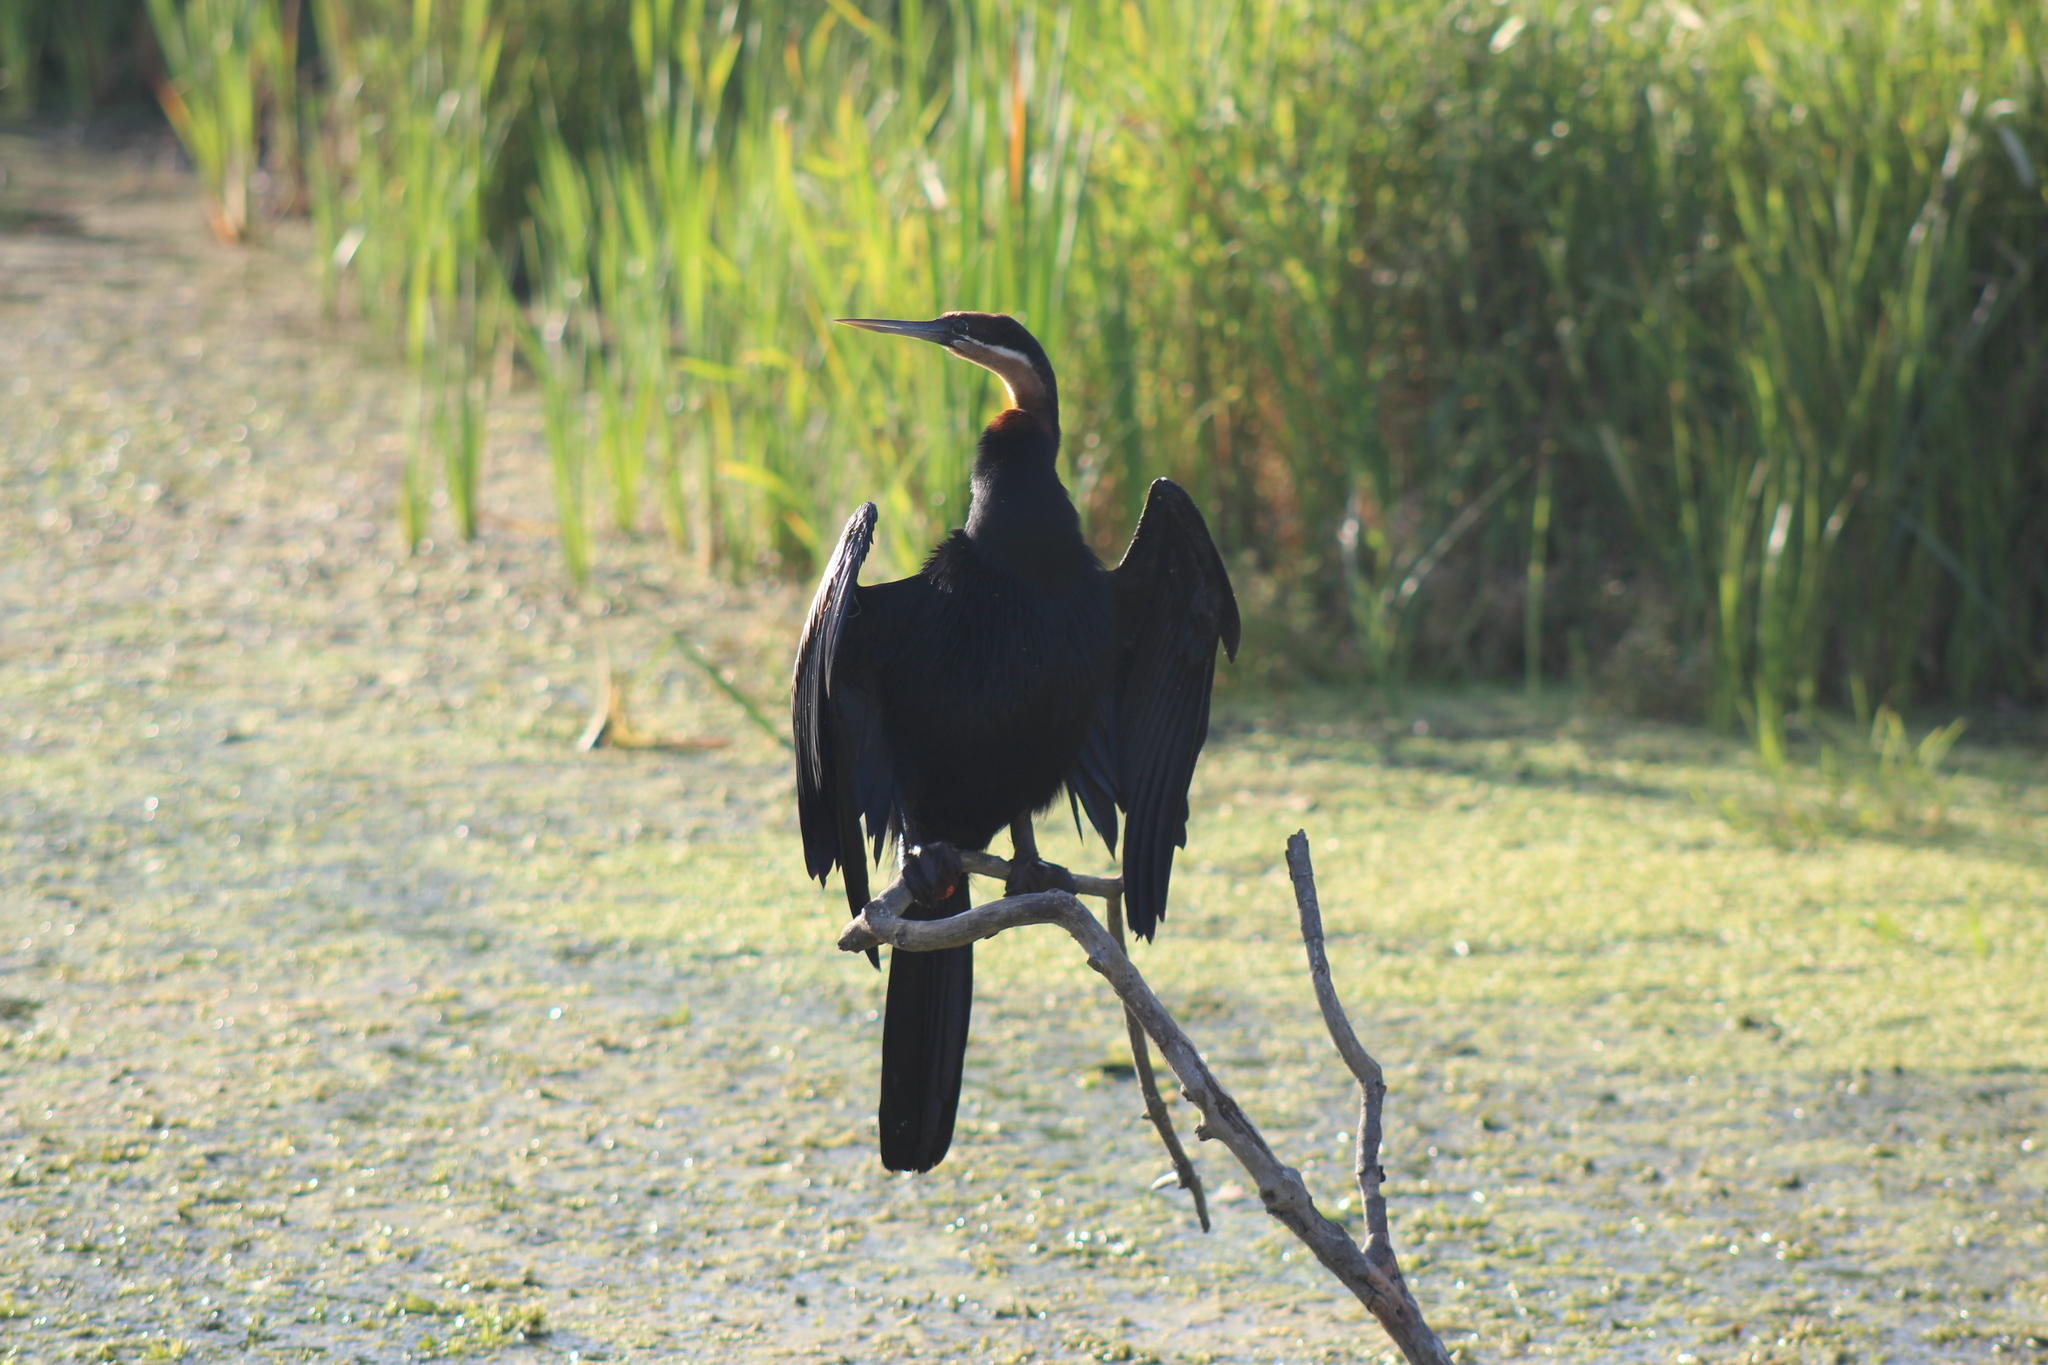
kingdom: Animalia
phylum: Chordata
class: Aves
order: Suliformes
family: Anhingidae
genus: Anhinga
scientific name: Anhinga rufa
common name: African darter
